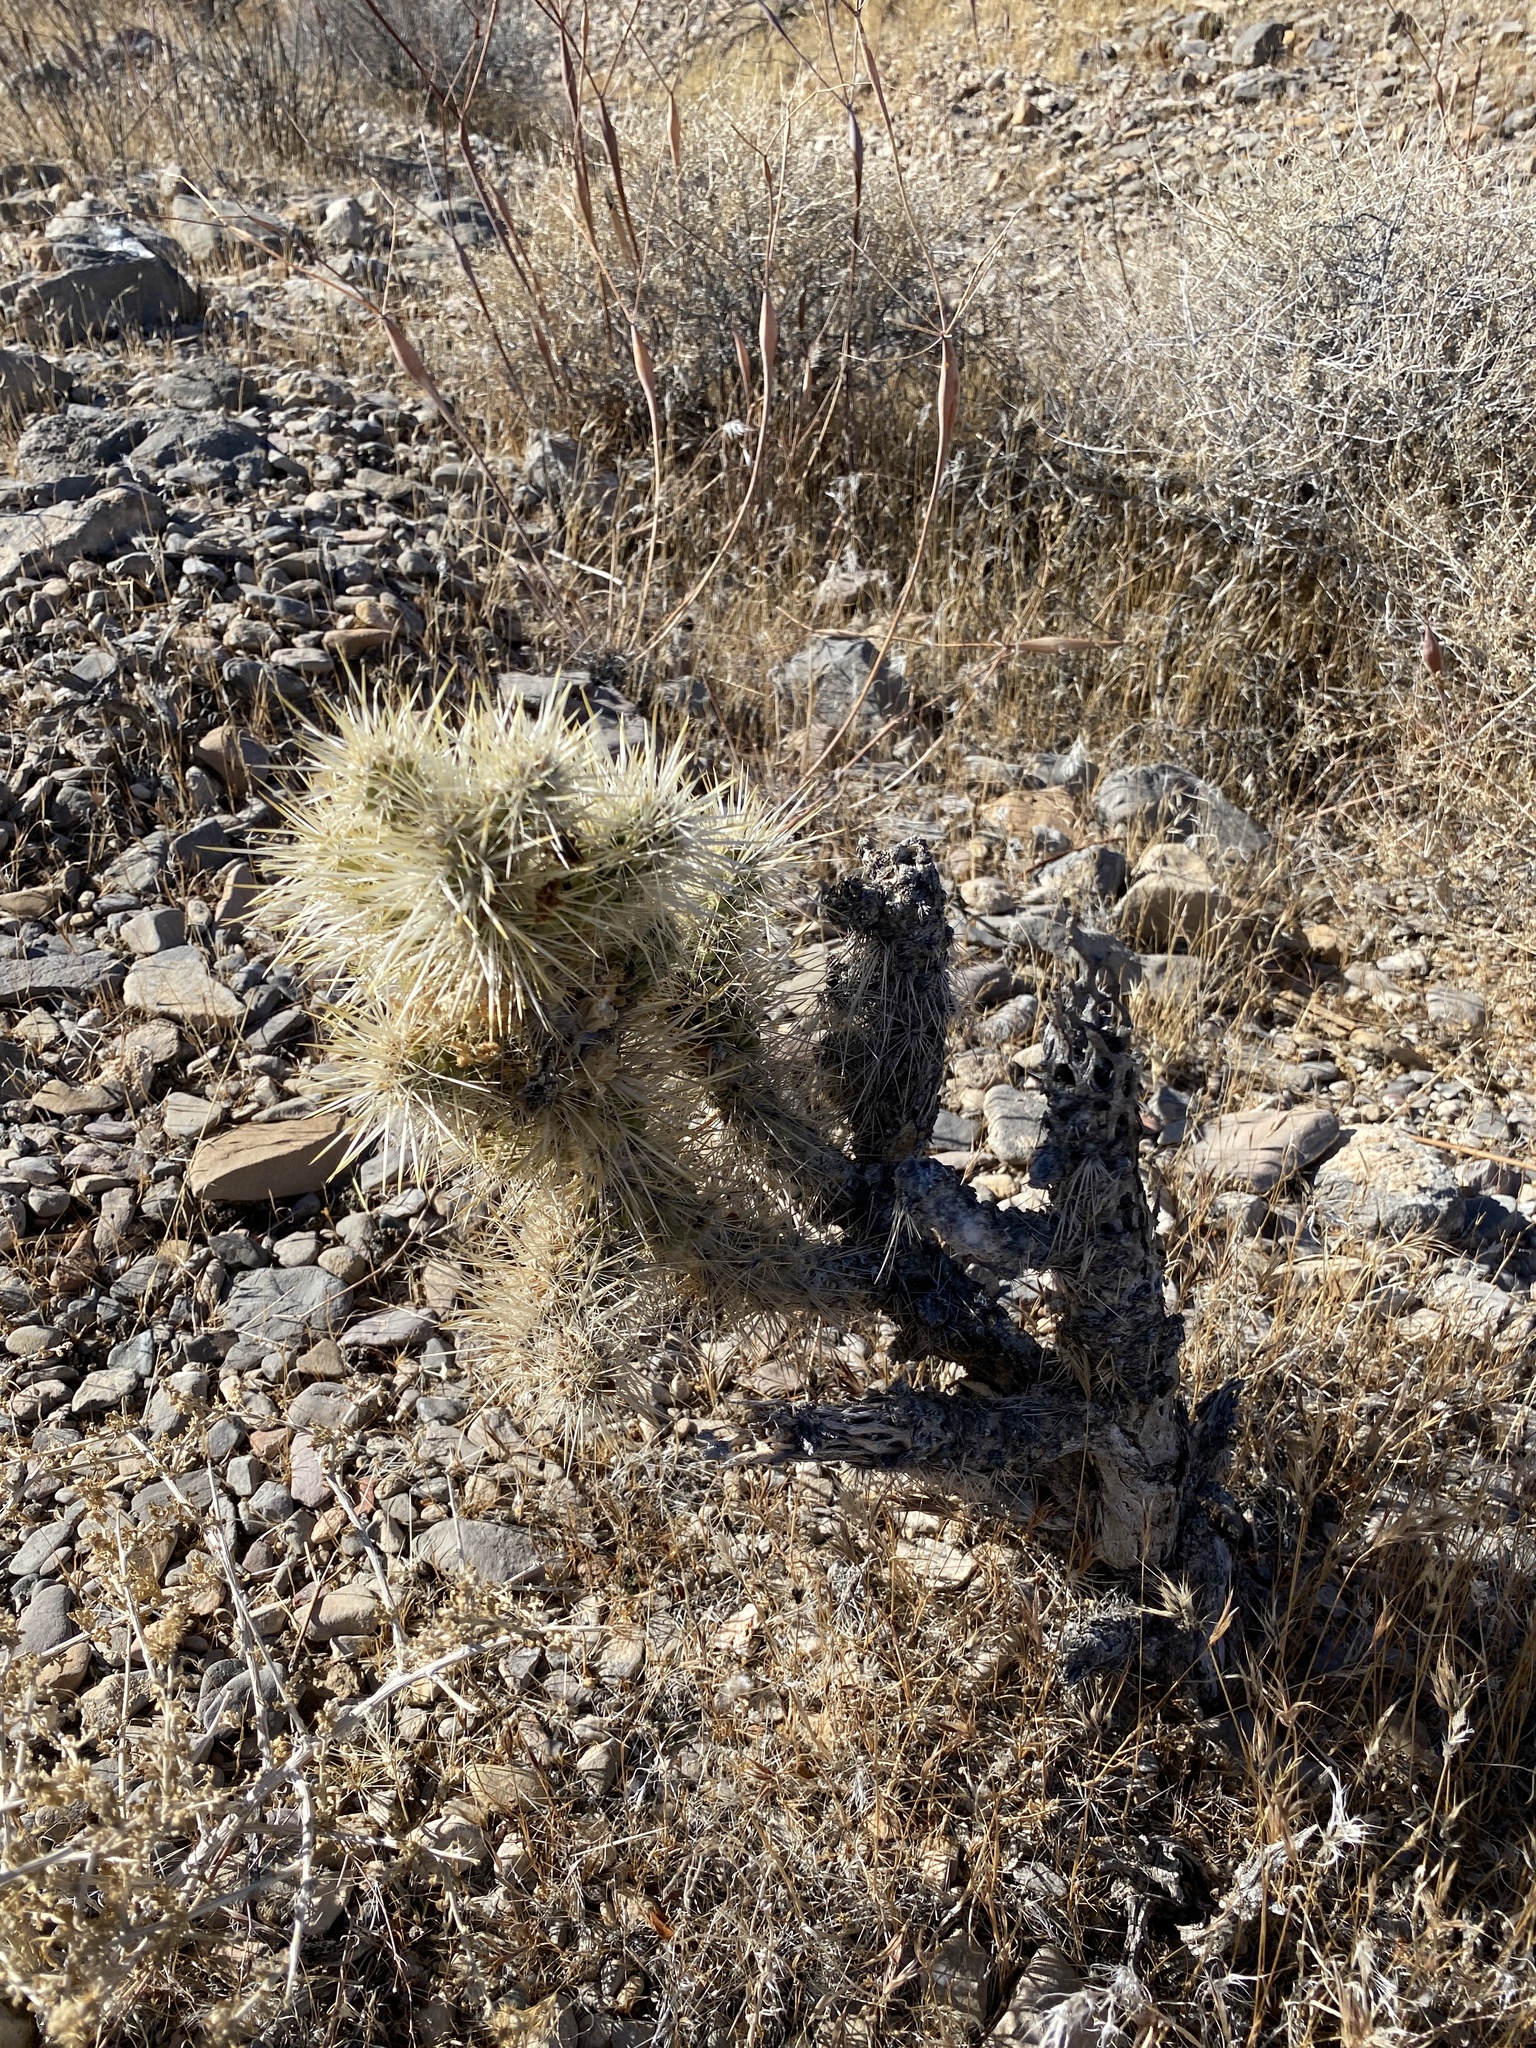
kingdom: Plantae
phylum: Tracheophyta
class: Magnoliopsida
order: Caryophyllales
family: Cactaceae
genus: Cylindropuntia
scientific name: Cylindropuntia echinocarpa
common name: Ground cholla
